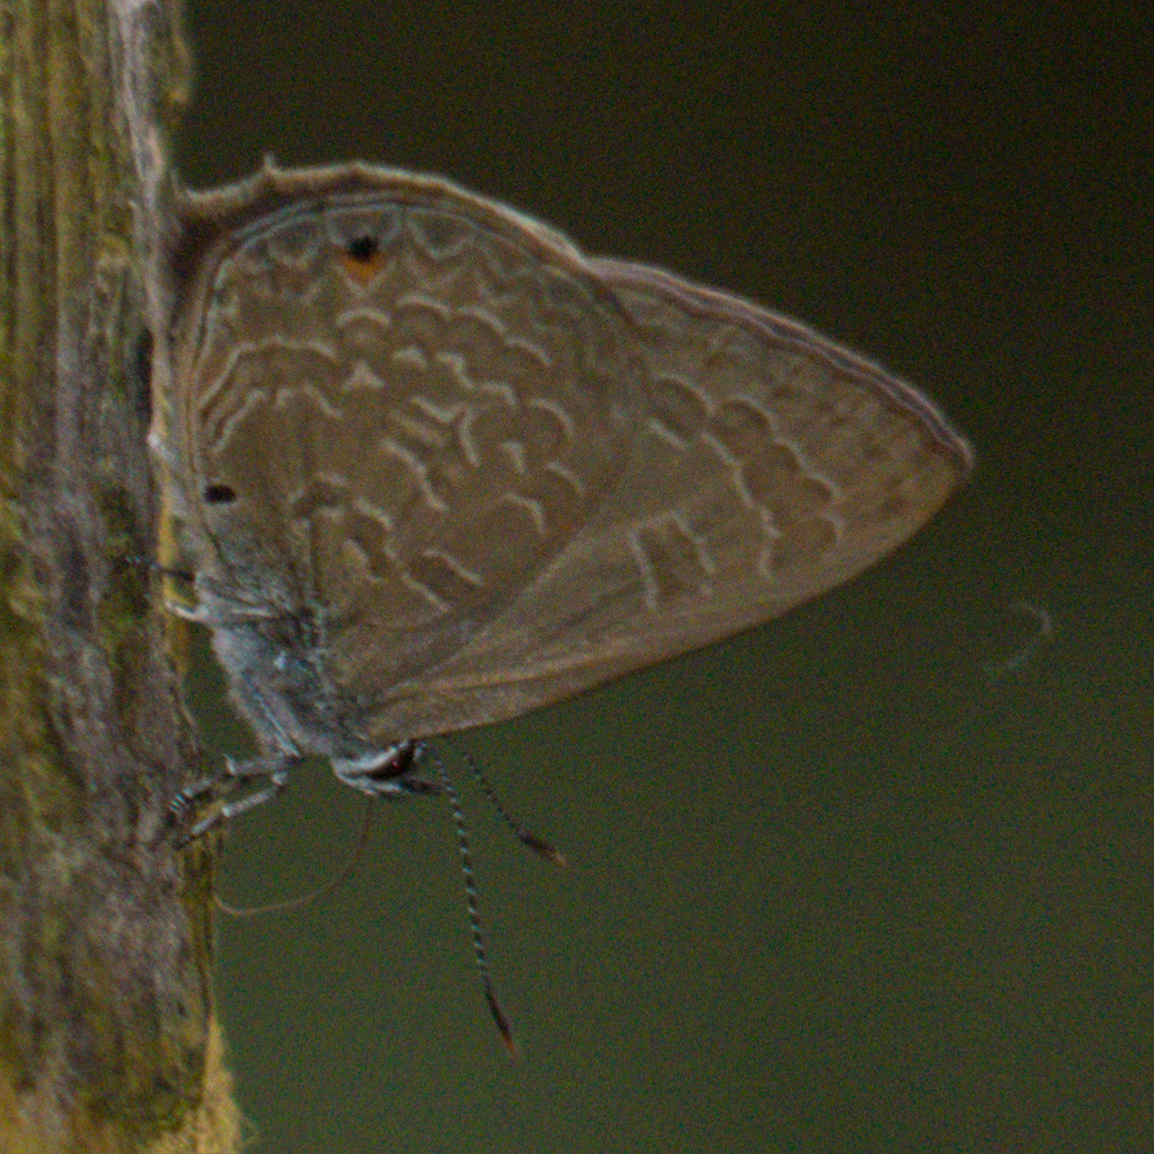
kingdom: Animalia
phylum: Arthropoda
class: Insecta
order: Lepidoptera
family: Lycaenidae
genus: Anthene
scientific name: Anthene emolus
